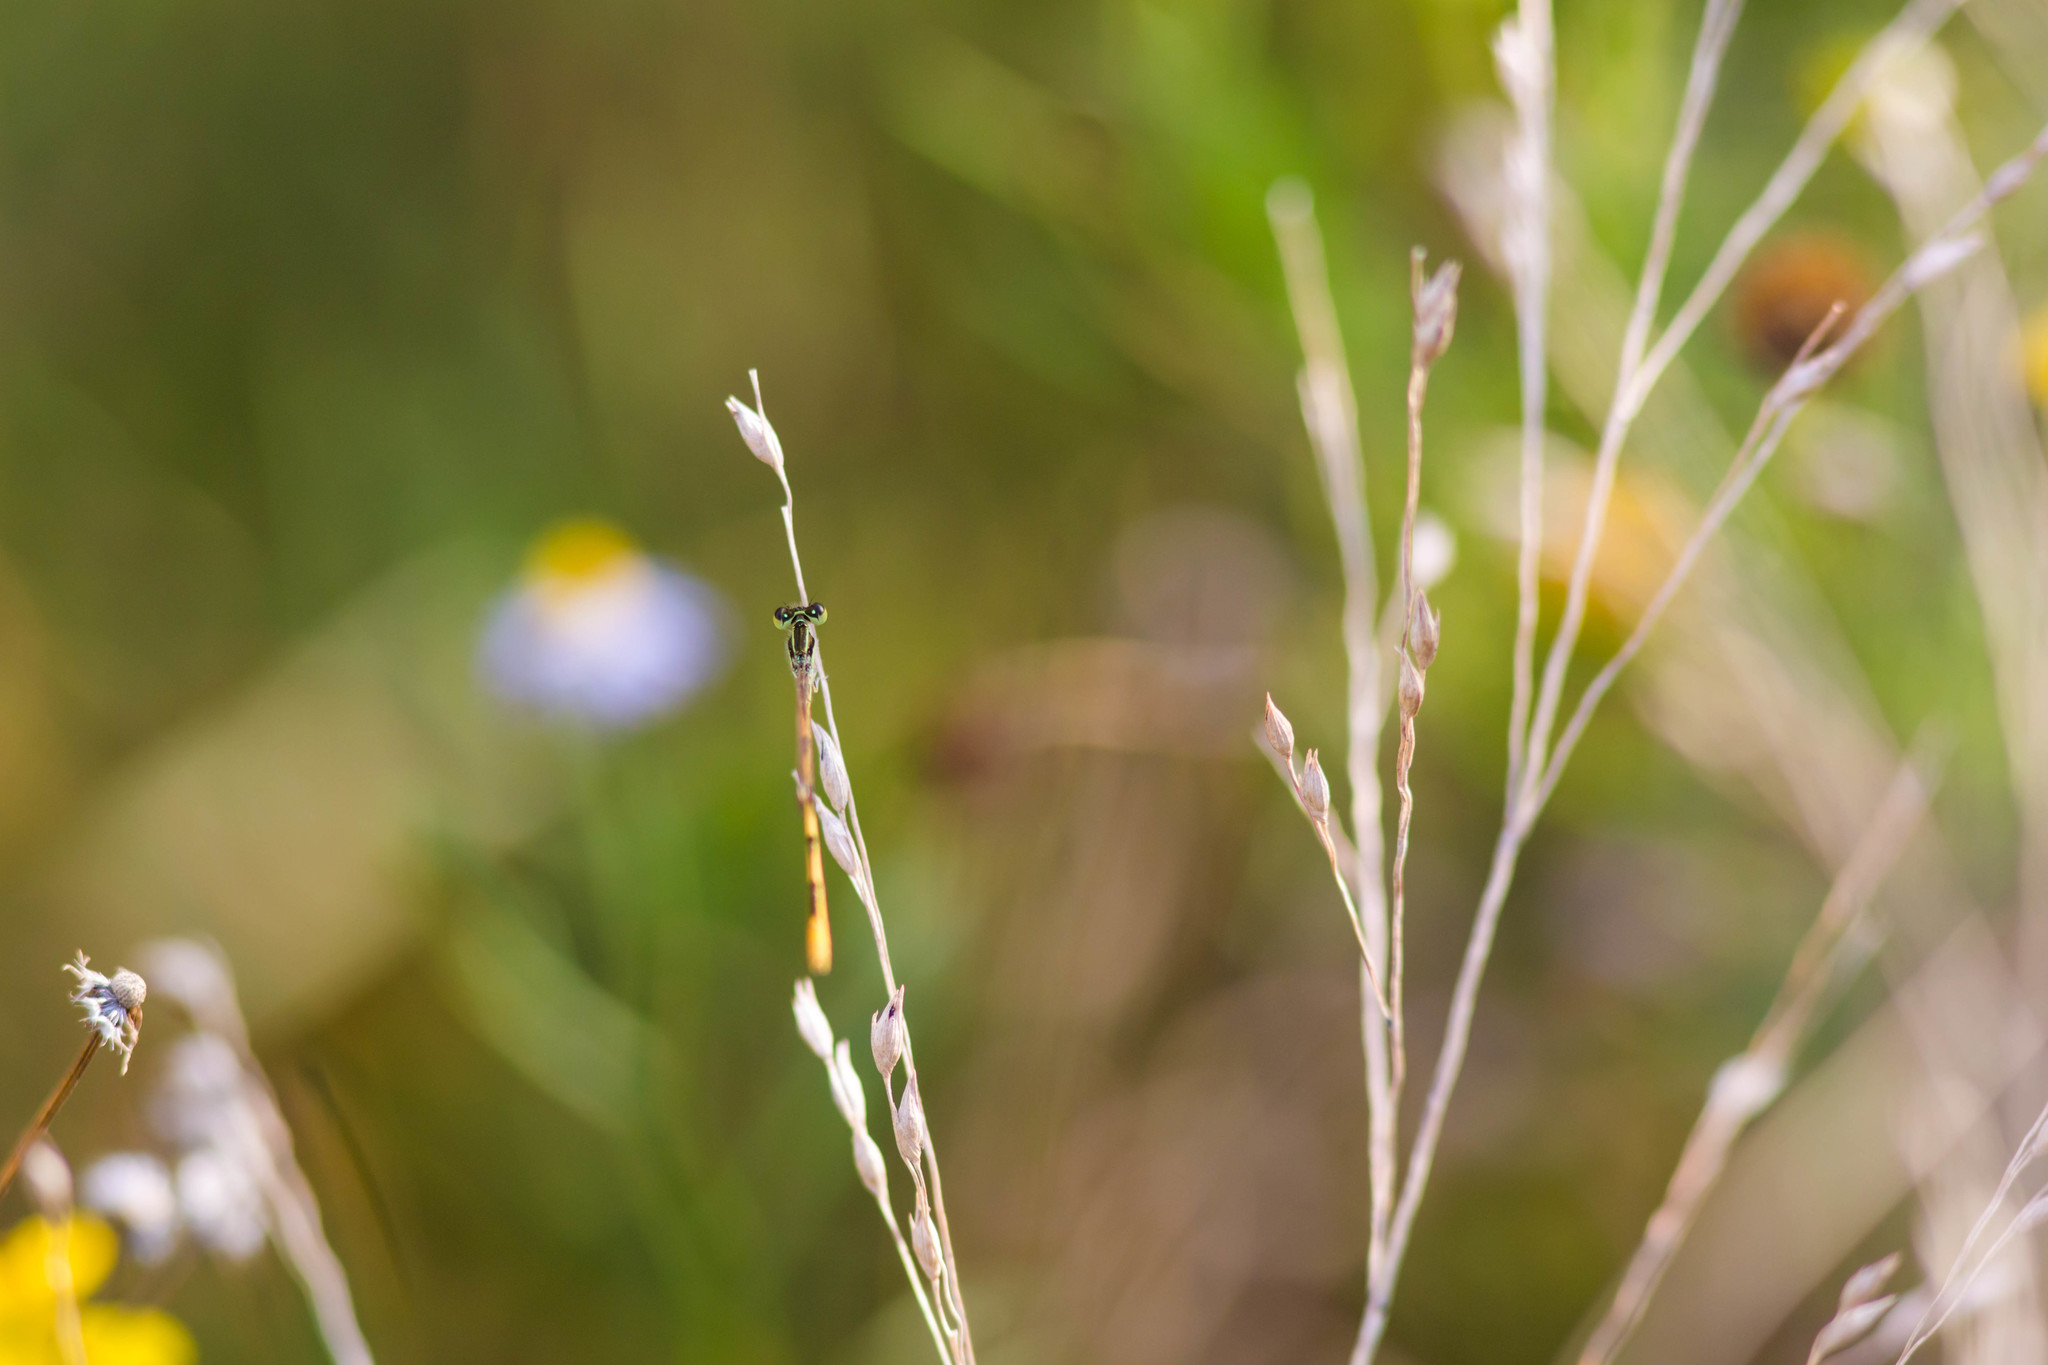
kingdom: Animalia
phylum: Arthropoda
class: Insecta
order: Odonata
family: Coenagrionidae
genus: Ischnura
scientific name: Ischnura hastata
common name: Citrine forktail
